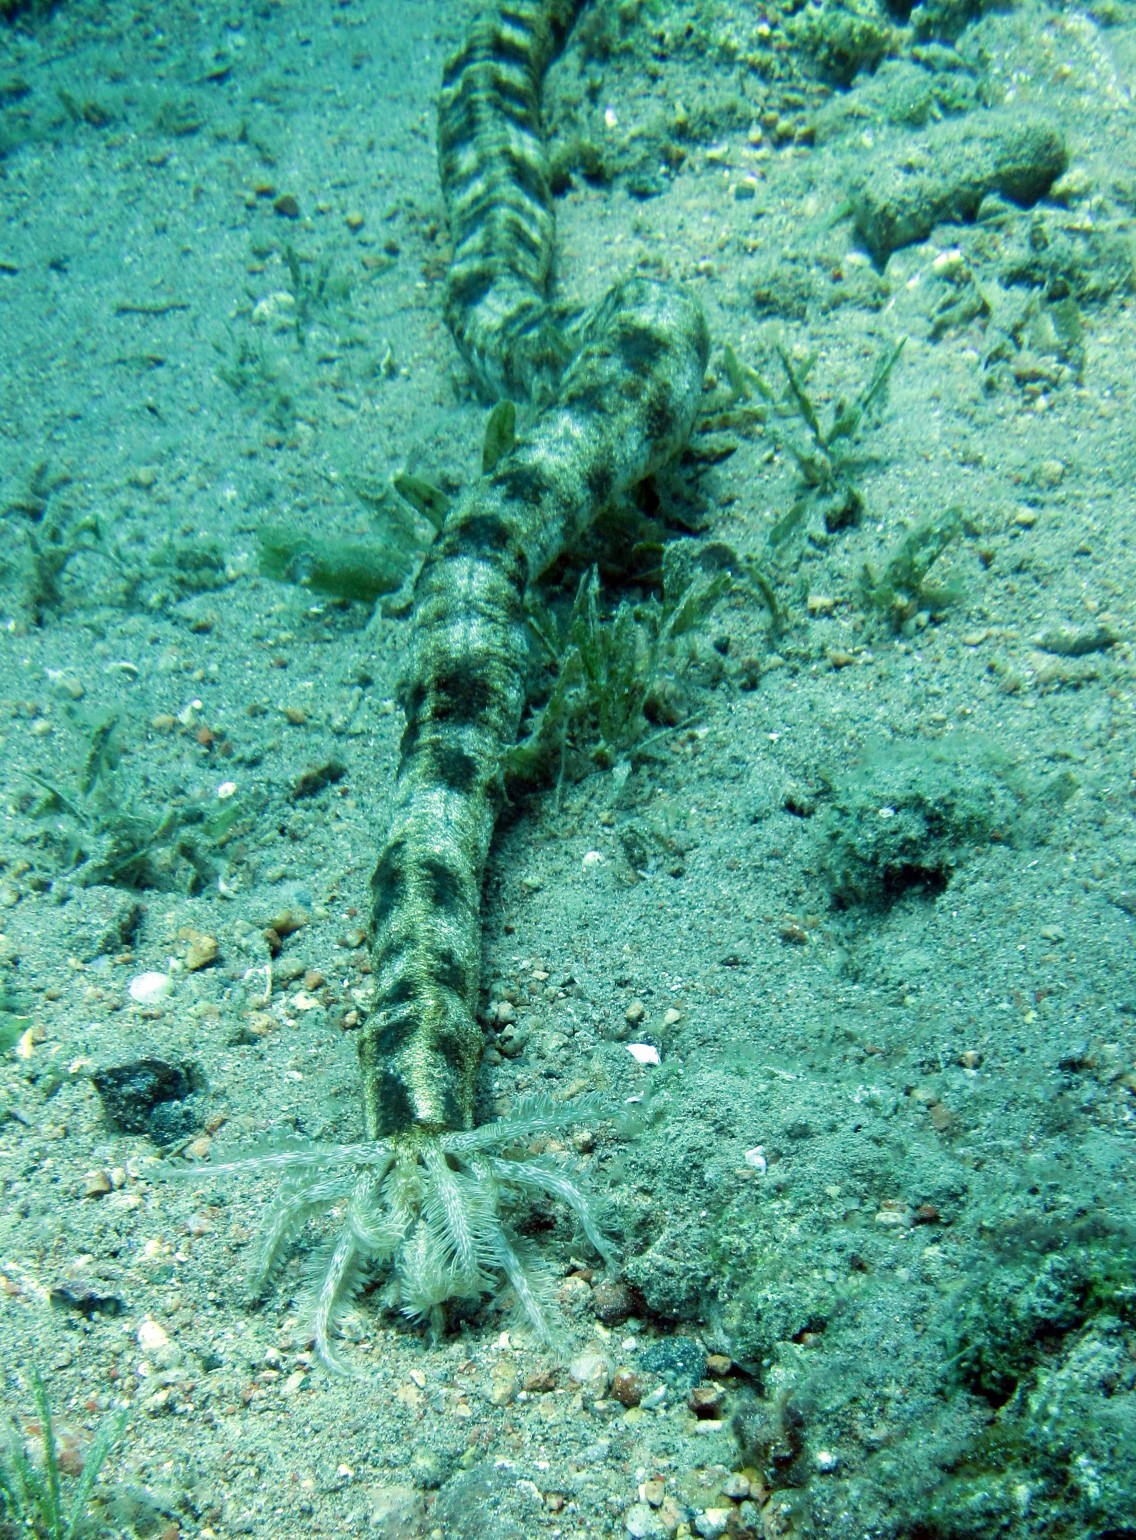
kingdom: Animalia
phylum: Echinodermata
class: Holothuroidea
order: Apodida
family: Synaptidae
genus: Synapta
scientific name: Synapta maculata
